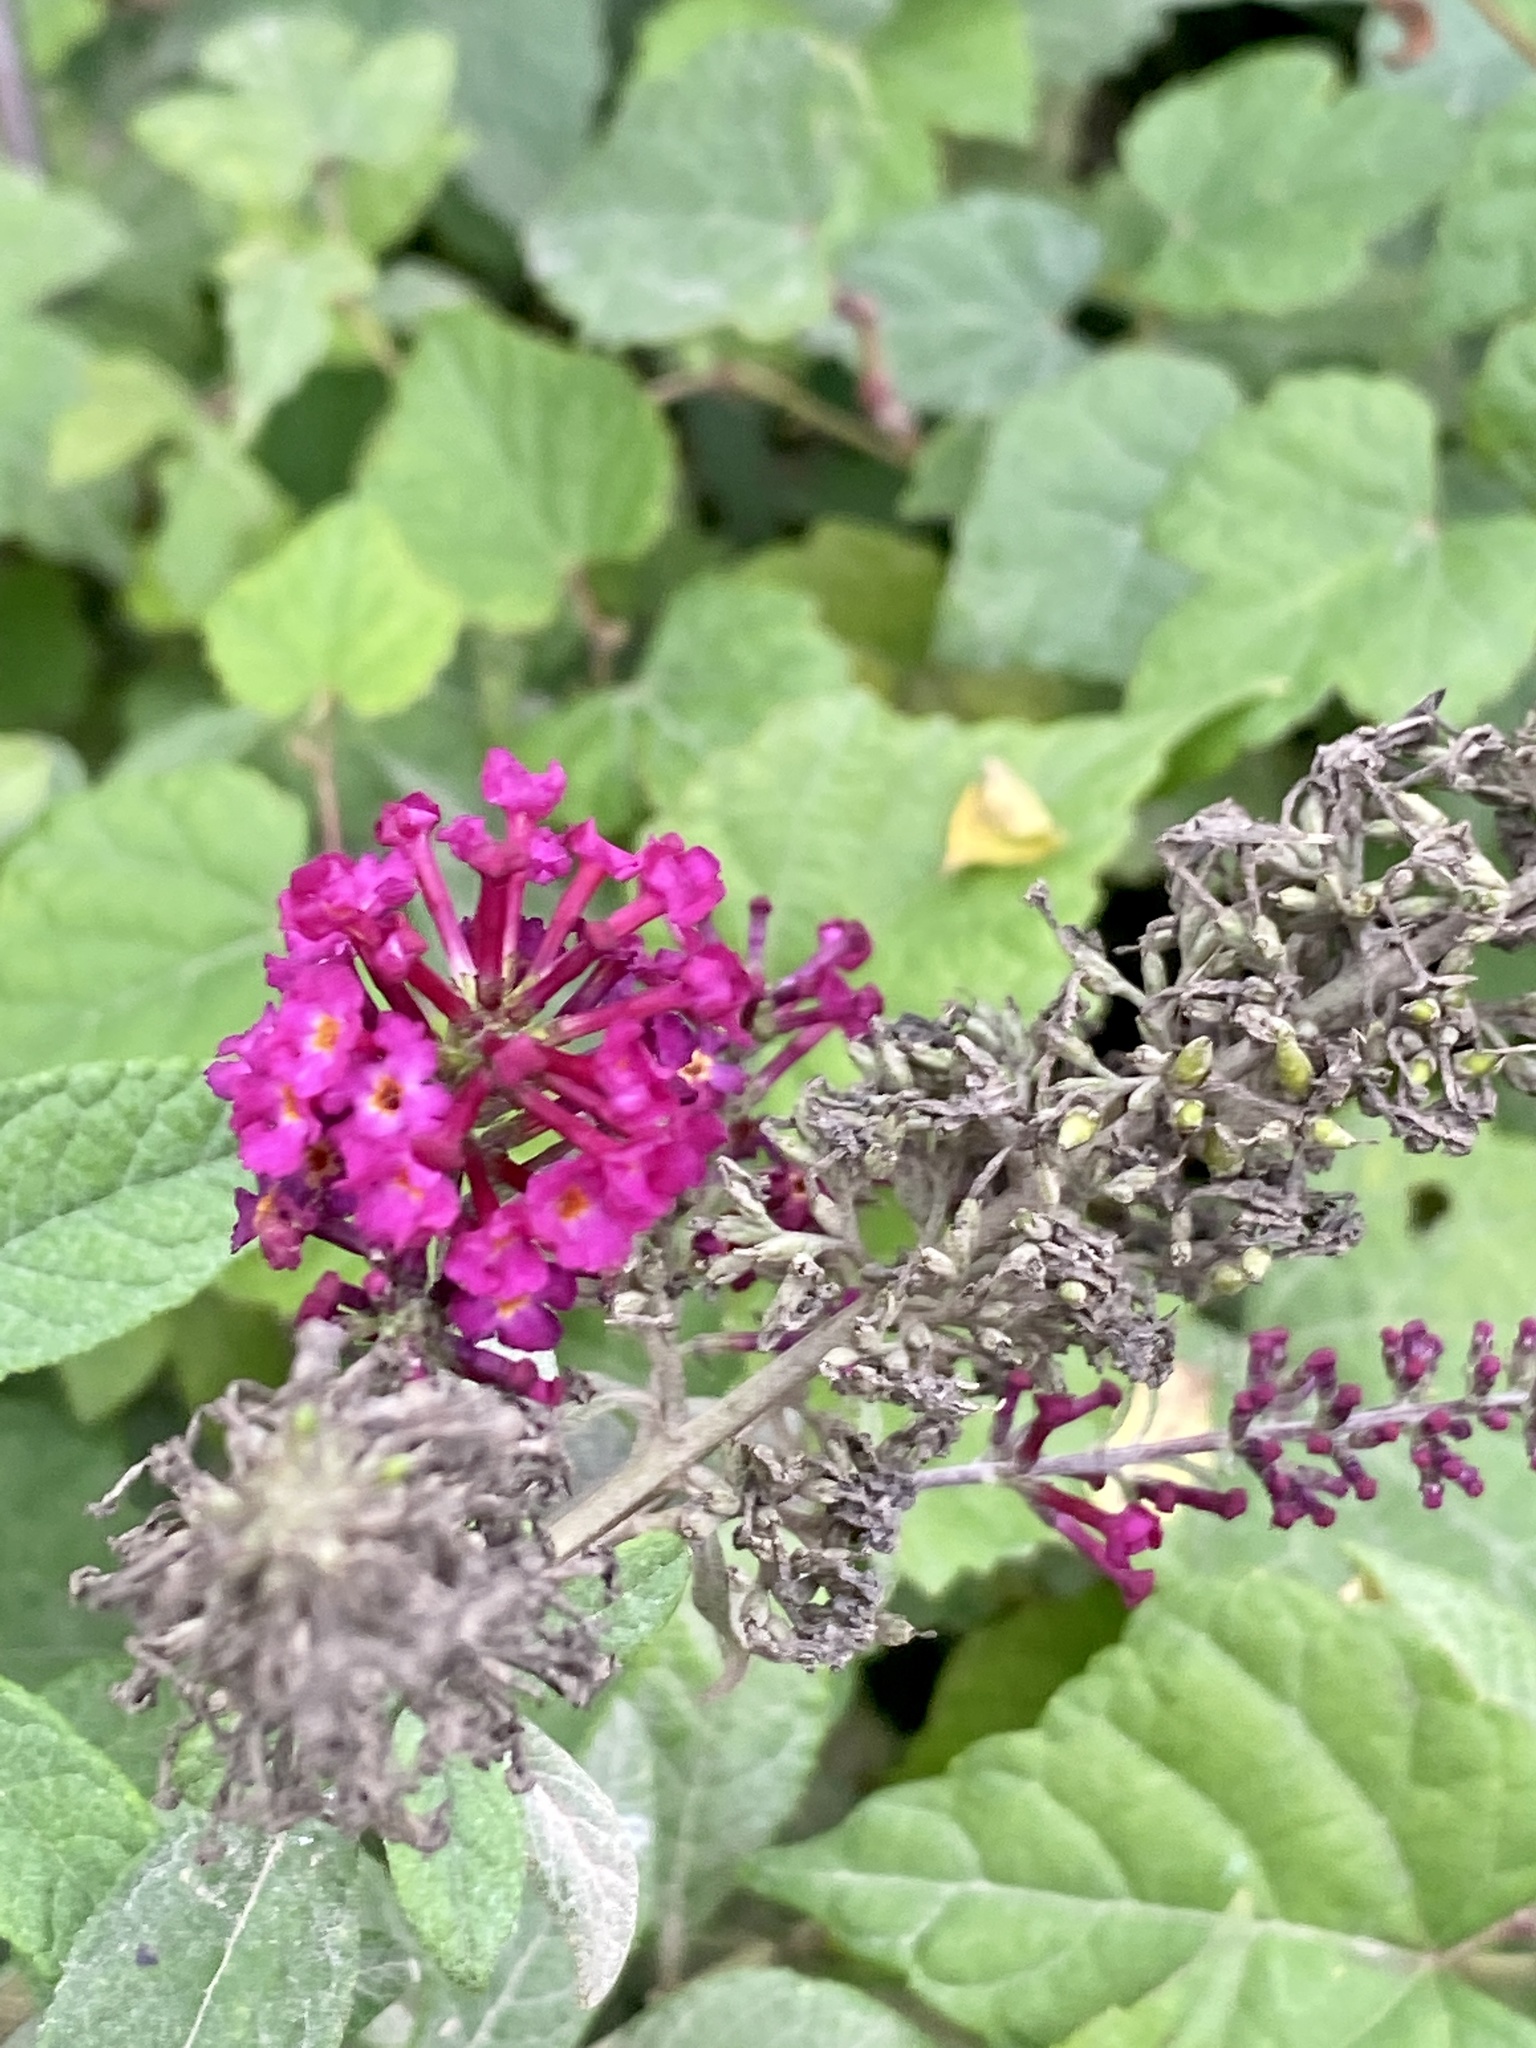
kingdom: Plantae
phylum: Tracheophyta
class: Magnoliopsida
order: Lamiales
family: Scrophulariaceae
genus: Buddleja
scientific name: Buddleja davidii
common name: Butterfly-bush
